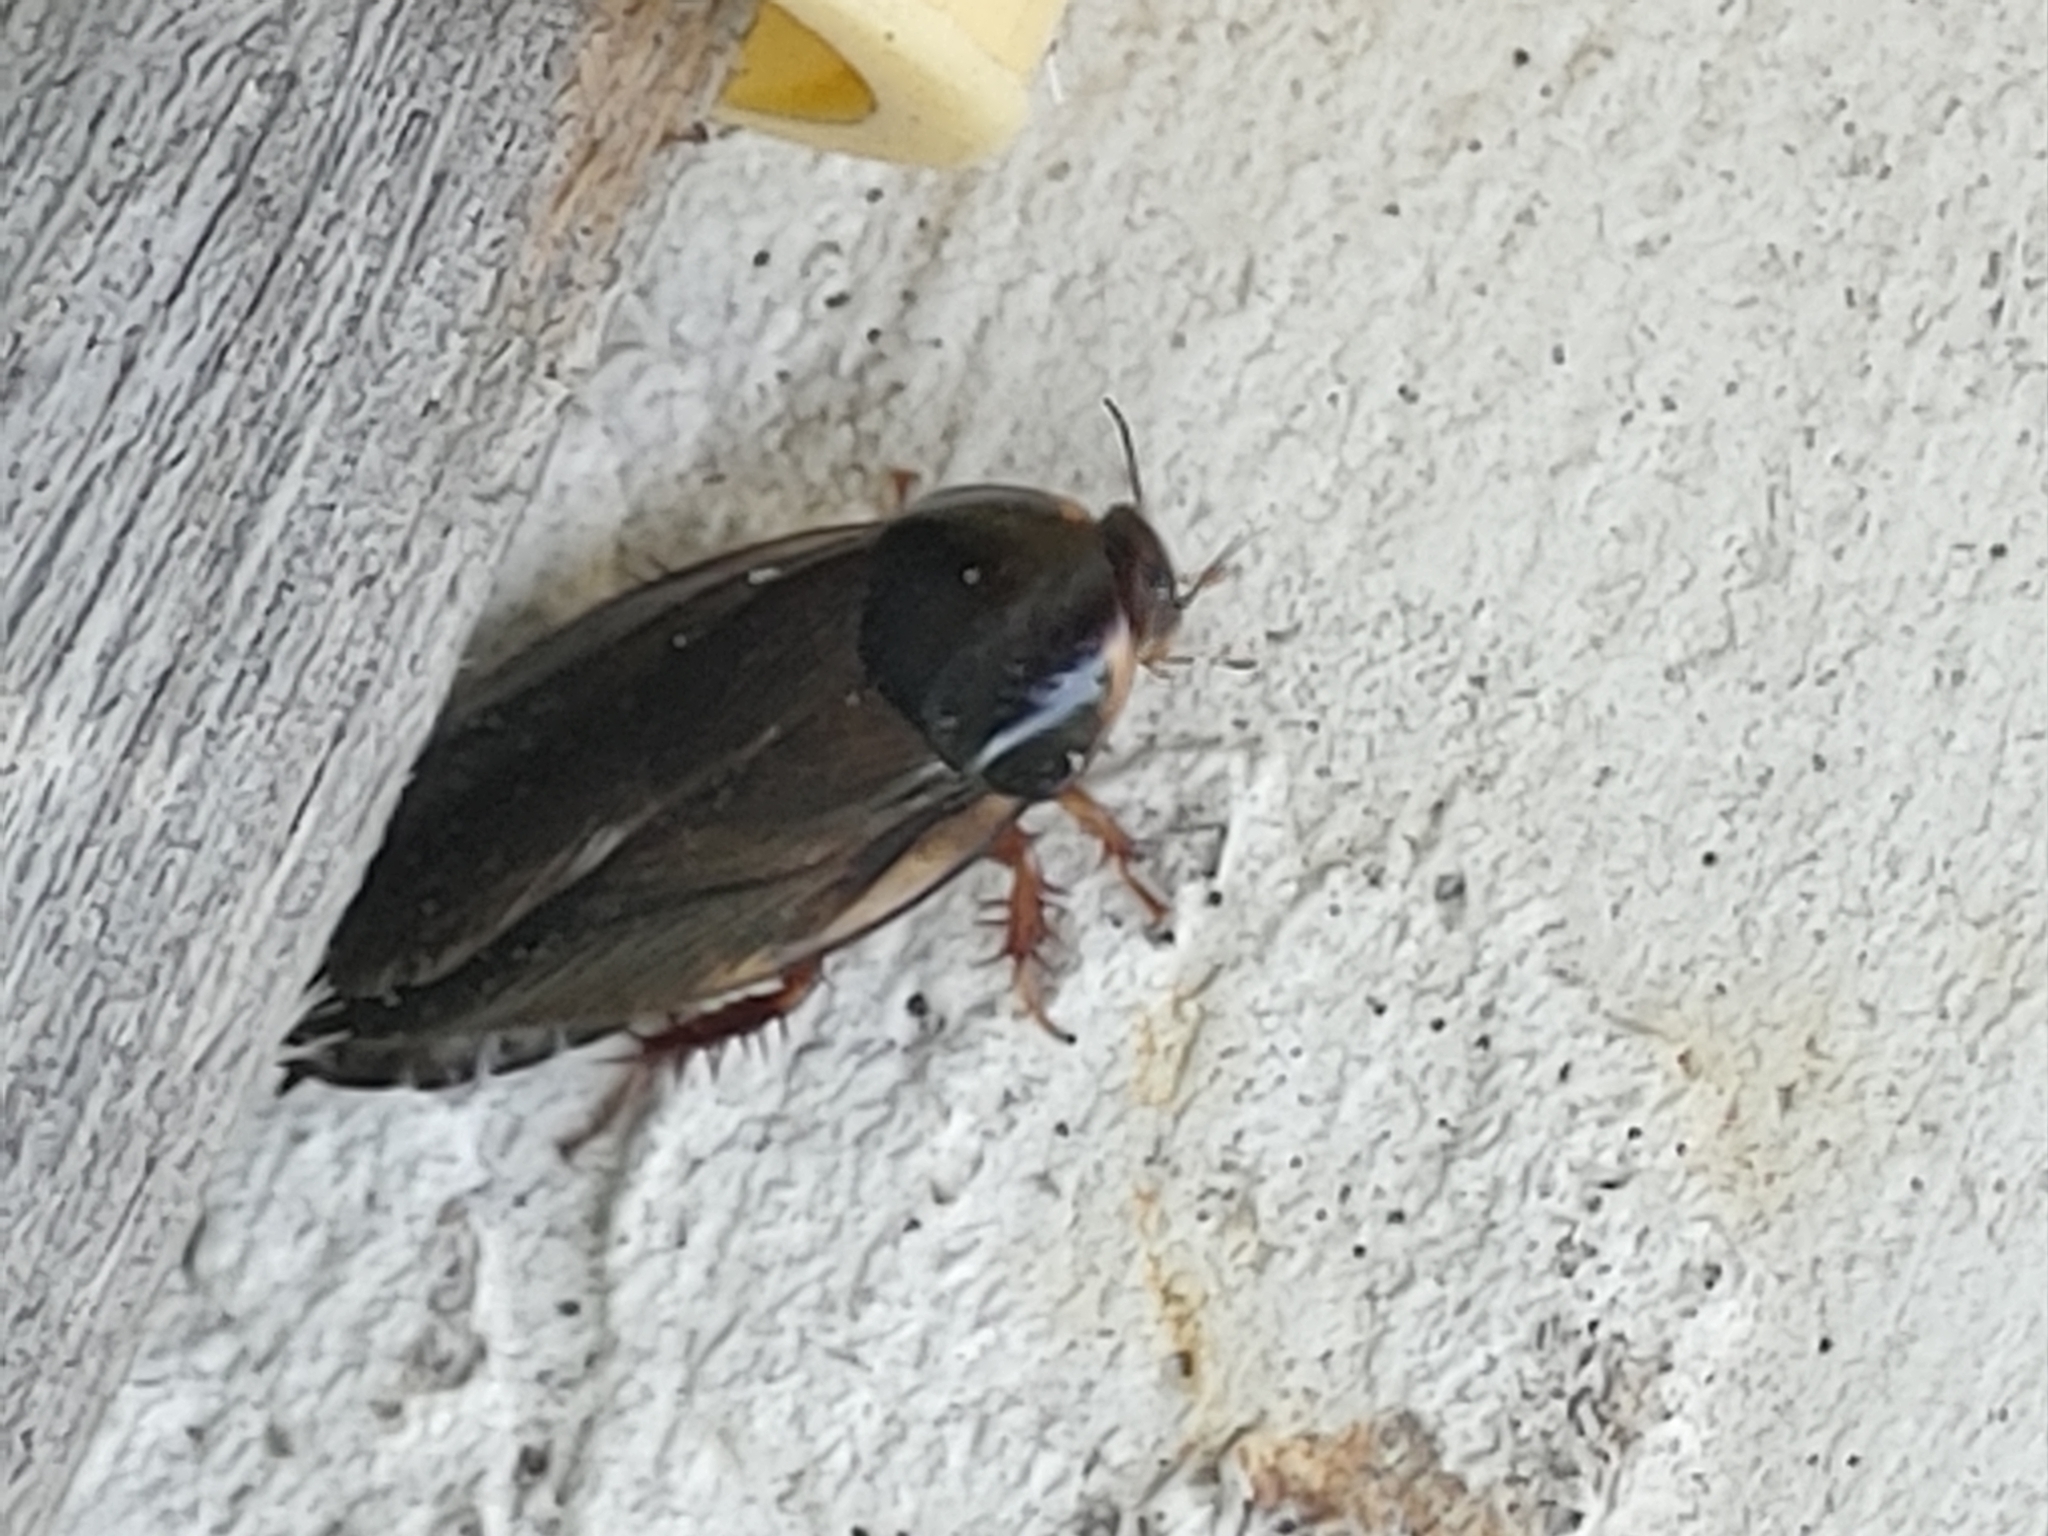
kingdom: Animalia
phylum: Arthropoda
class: Insecta
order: Blattodea
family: Blaberidae
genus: Pycnoscelus
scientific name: Pycnoscelus surinamensis
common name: Surinam cockroach
